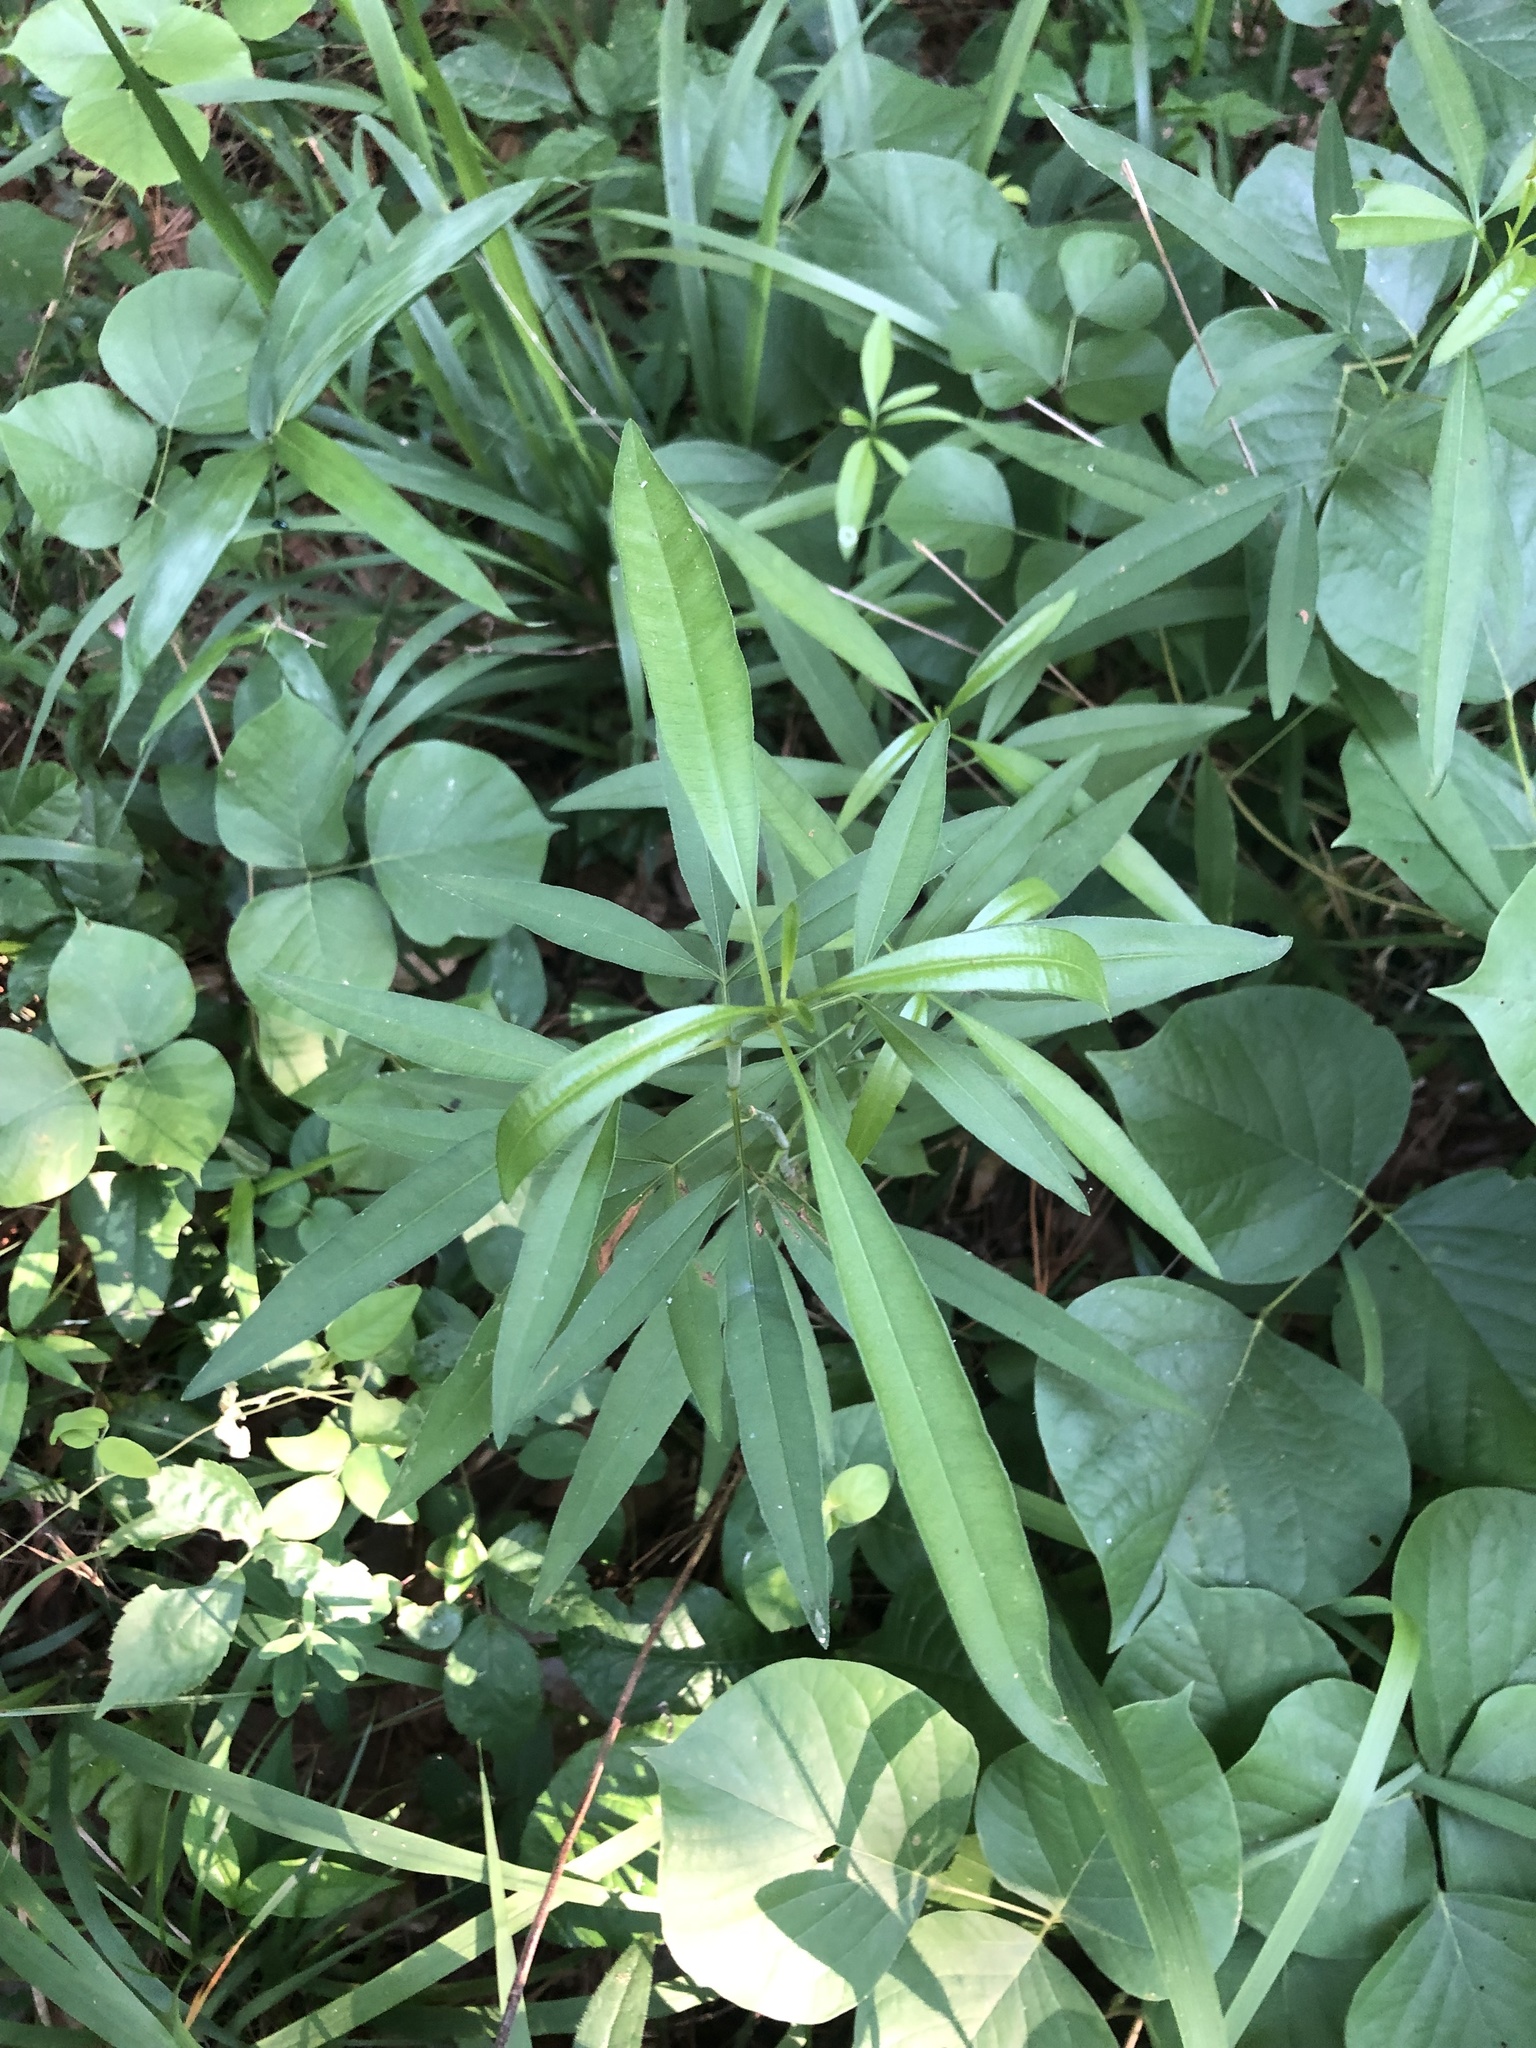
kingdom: Plantae
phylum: Tracheophyta
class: Magnoliopsida
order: Asterales
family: Asteraceae
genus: Coreopsis
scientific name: Coreopsis tripteris
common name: Tall coreopsis
